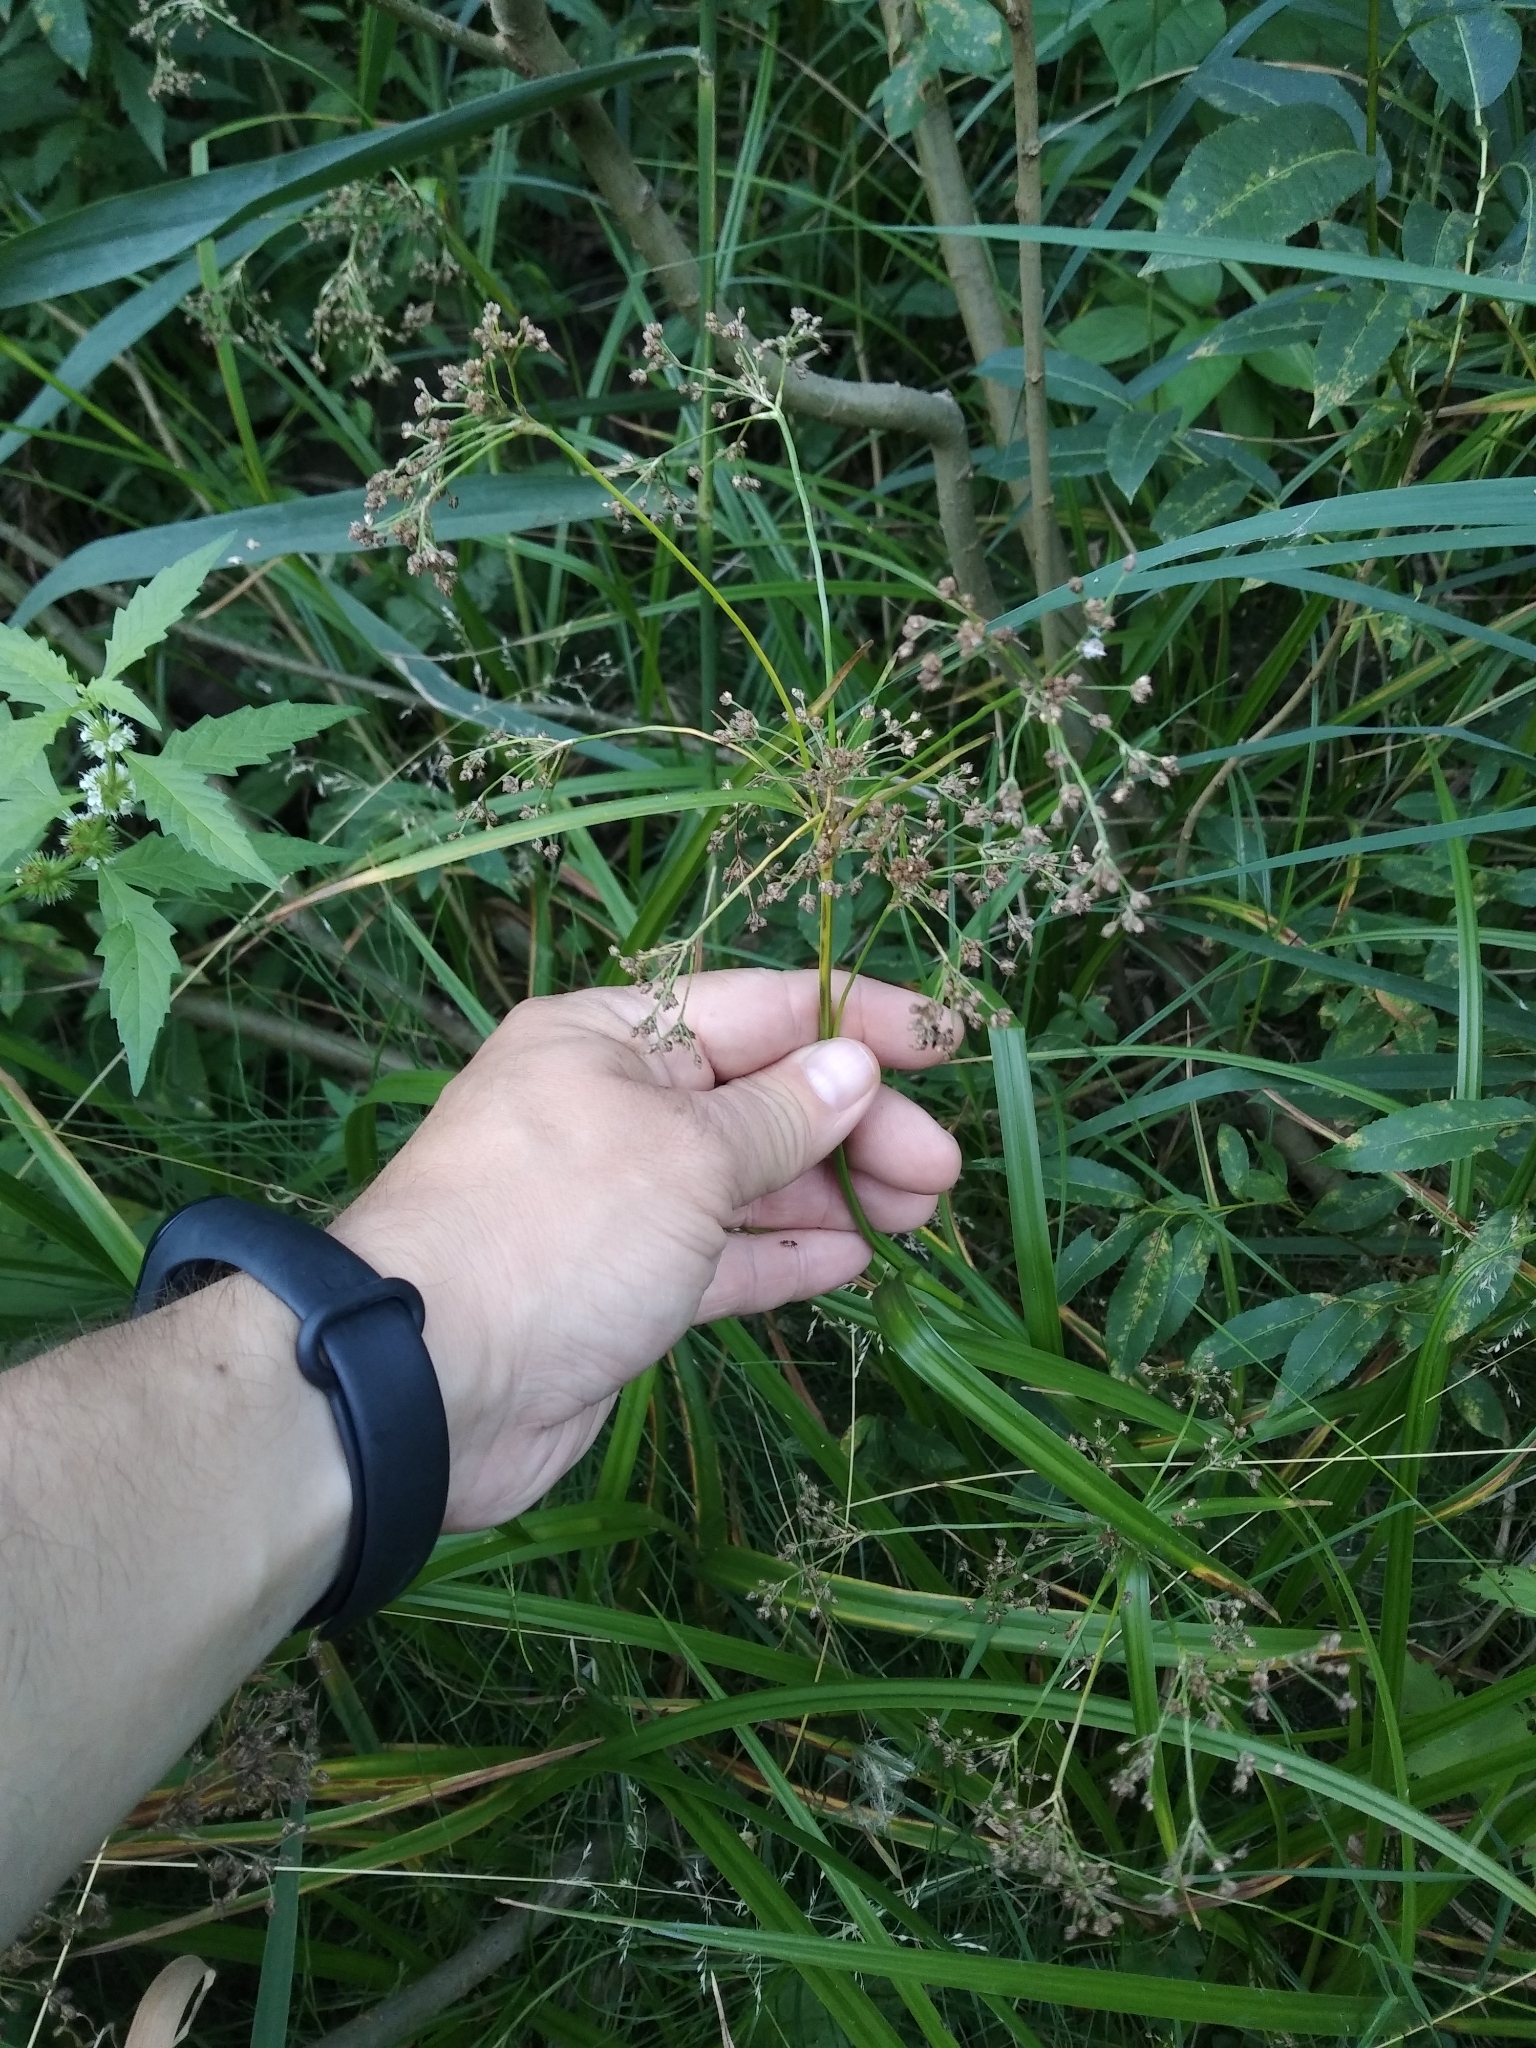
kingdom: Plantae
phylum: Tracheophyta
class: Liliopsida
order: Poales
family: Cyperaceae
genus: Scirpus
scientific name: Scirpus sylvaticus
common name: Wood club-rush
